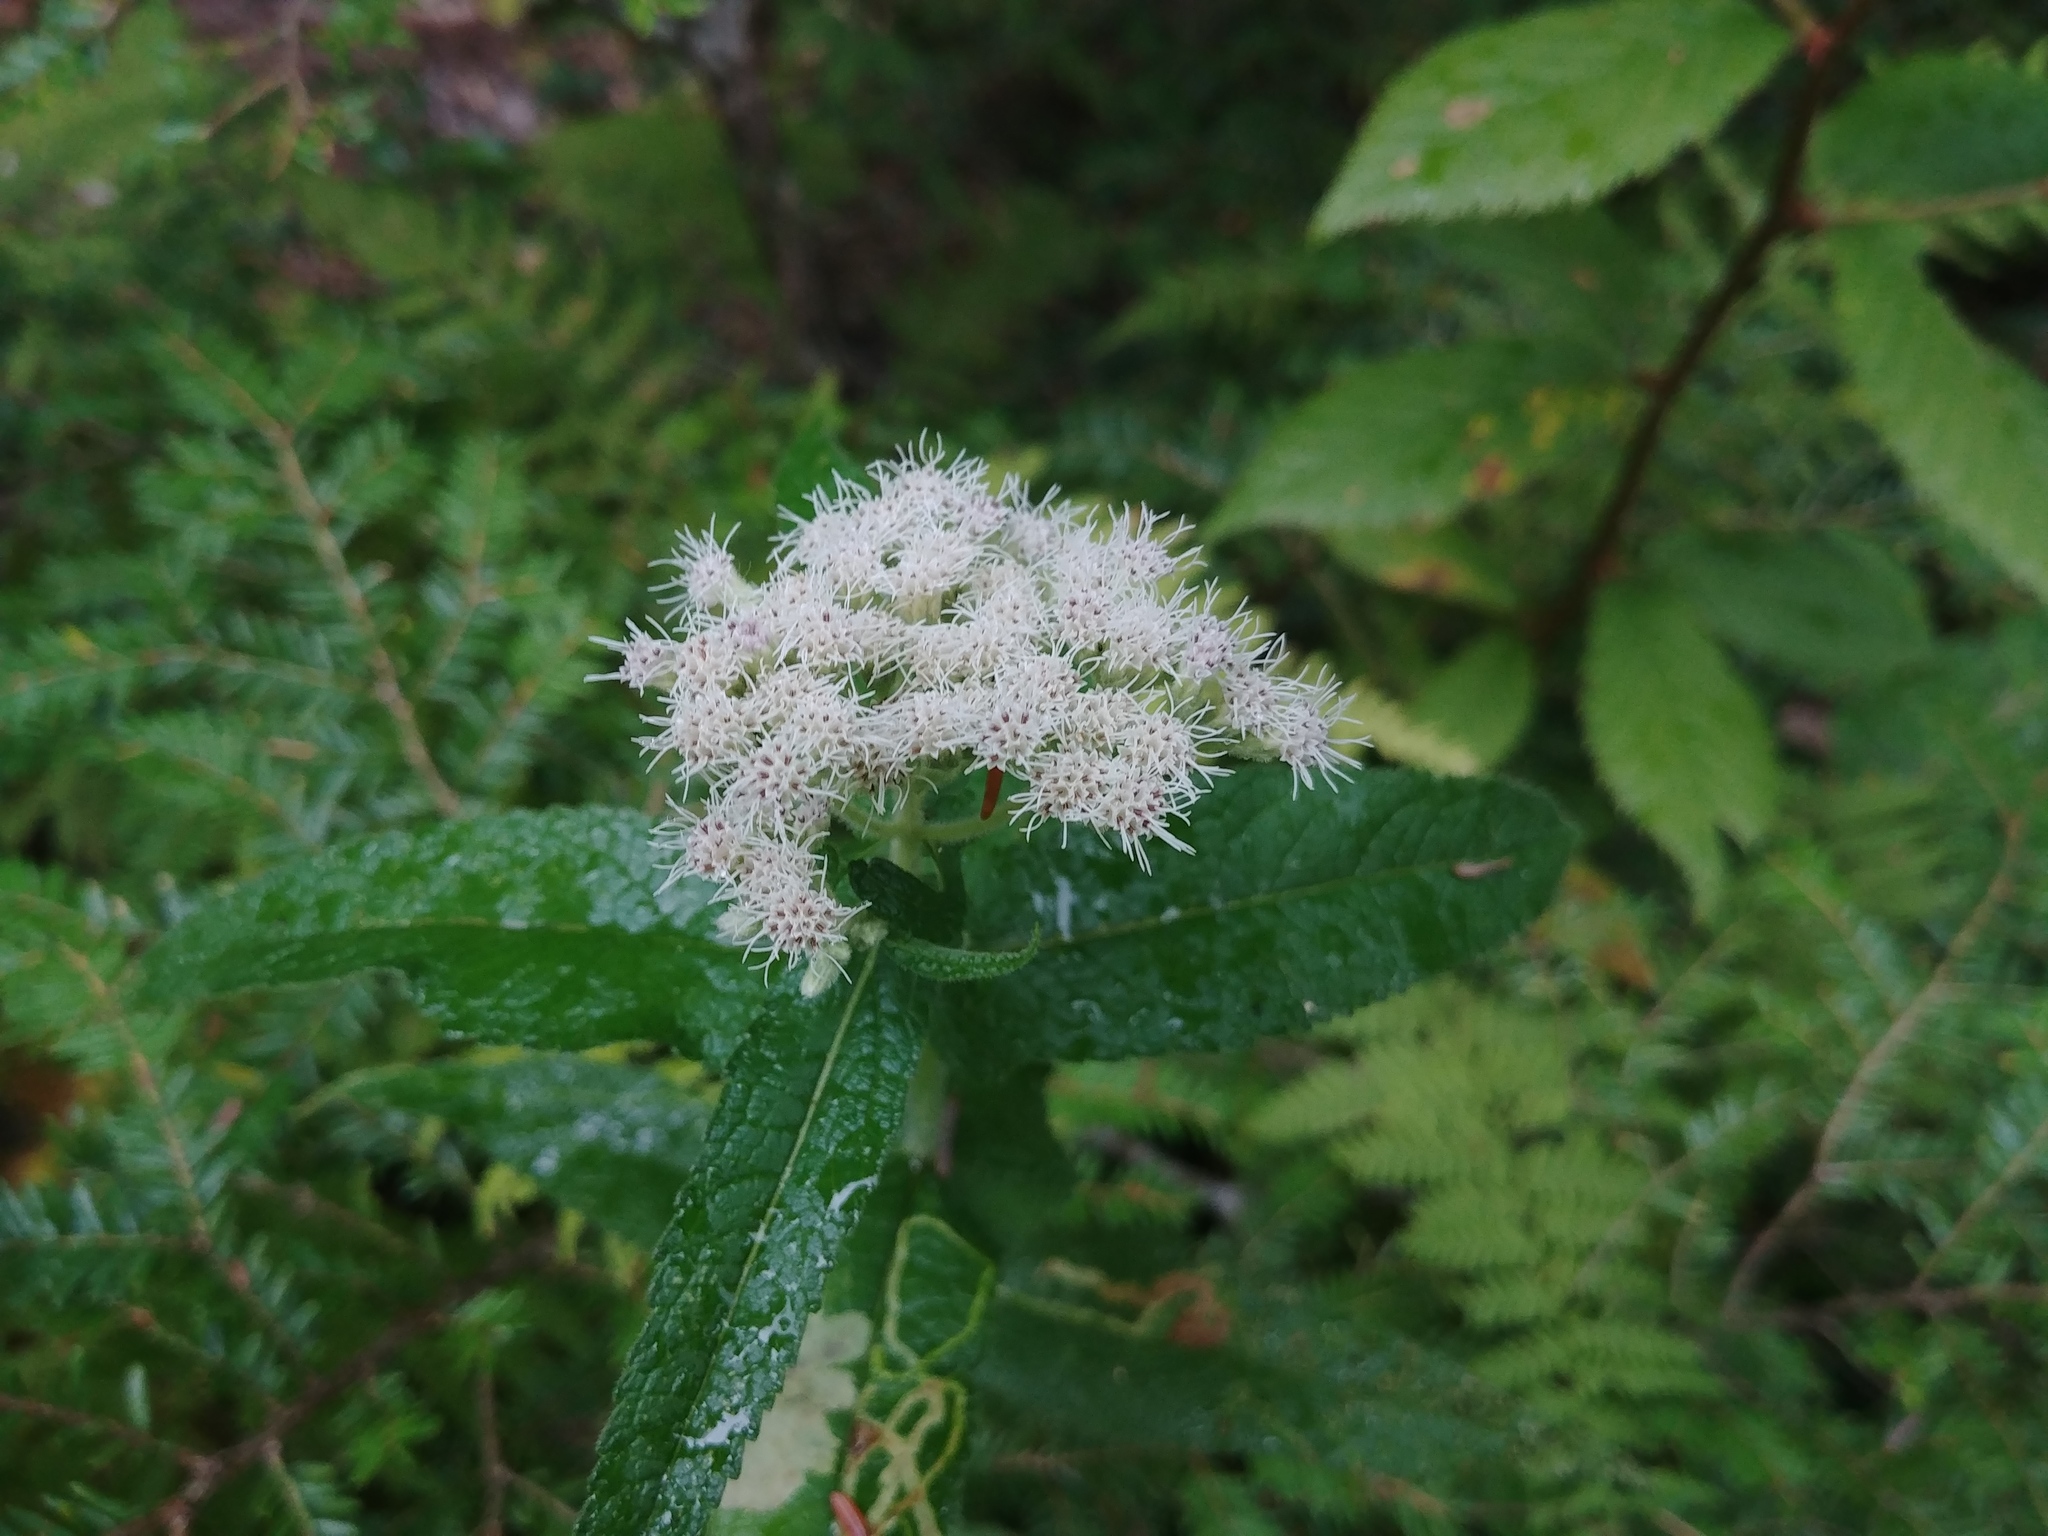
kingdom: Plantae
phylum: Tracheophyta
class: Magnoliopsida
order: Asterales
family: Asteraceae
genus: Eupatorium
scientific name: Eupatorium perfoliatum
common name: Boneset
